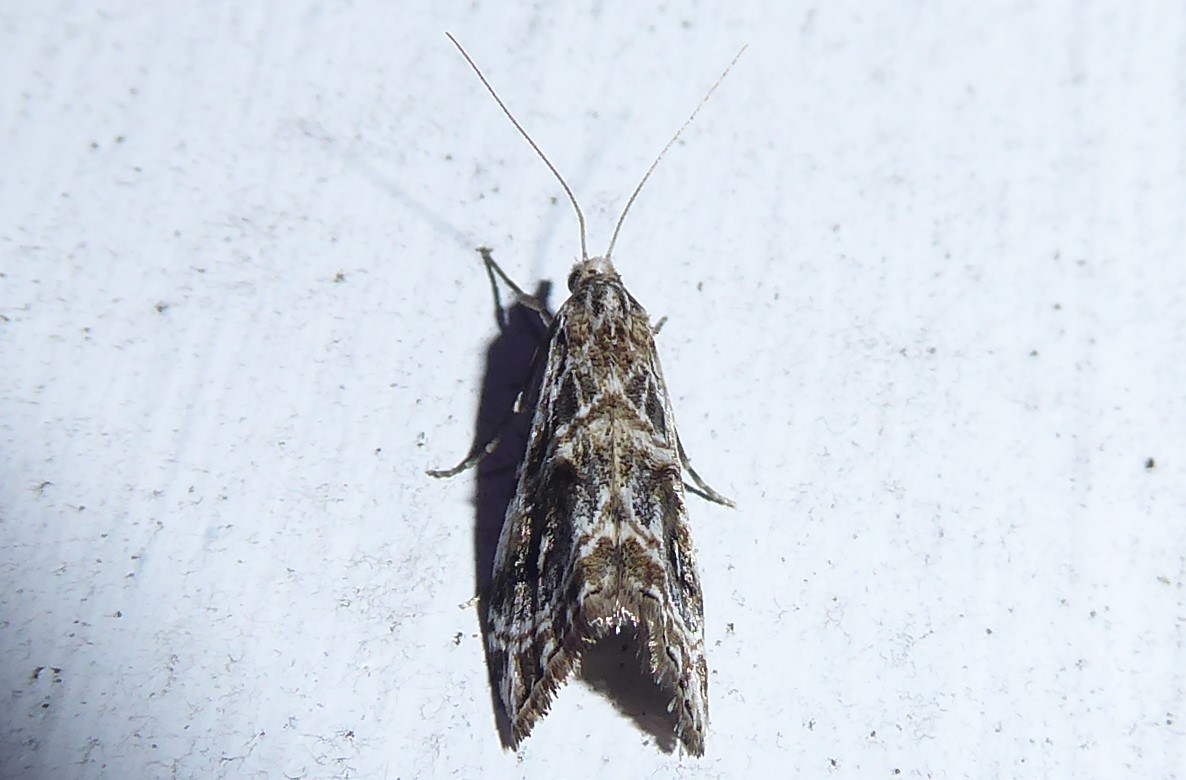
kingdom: Animalia
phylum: Arthropoda
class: Insecta
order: Lepidoptera
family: Crambidae
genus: Gadira
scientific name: Gadira acerella
